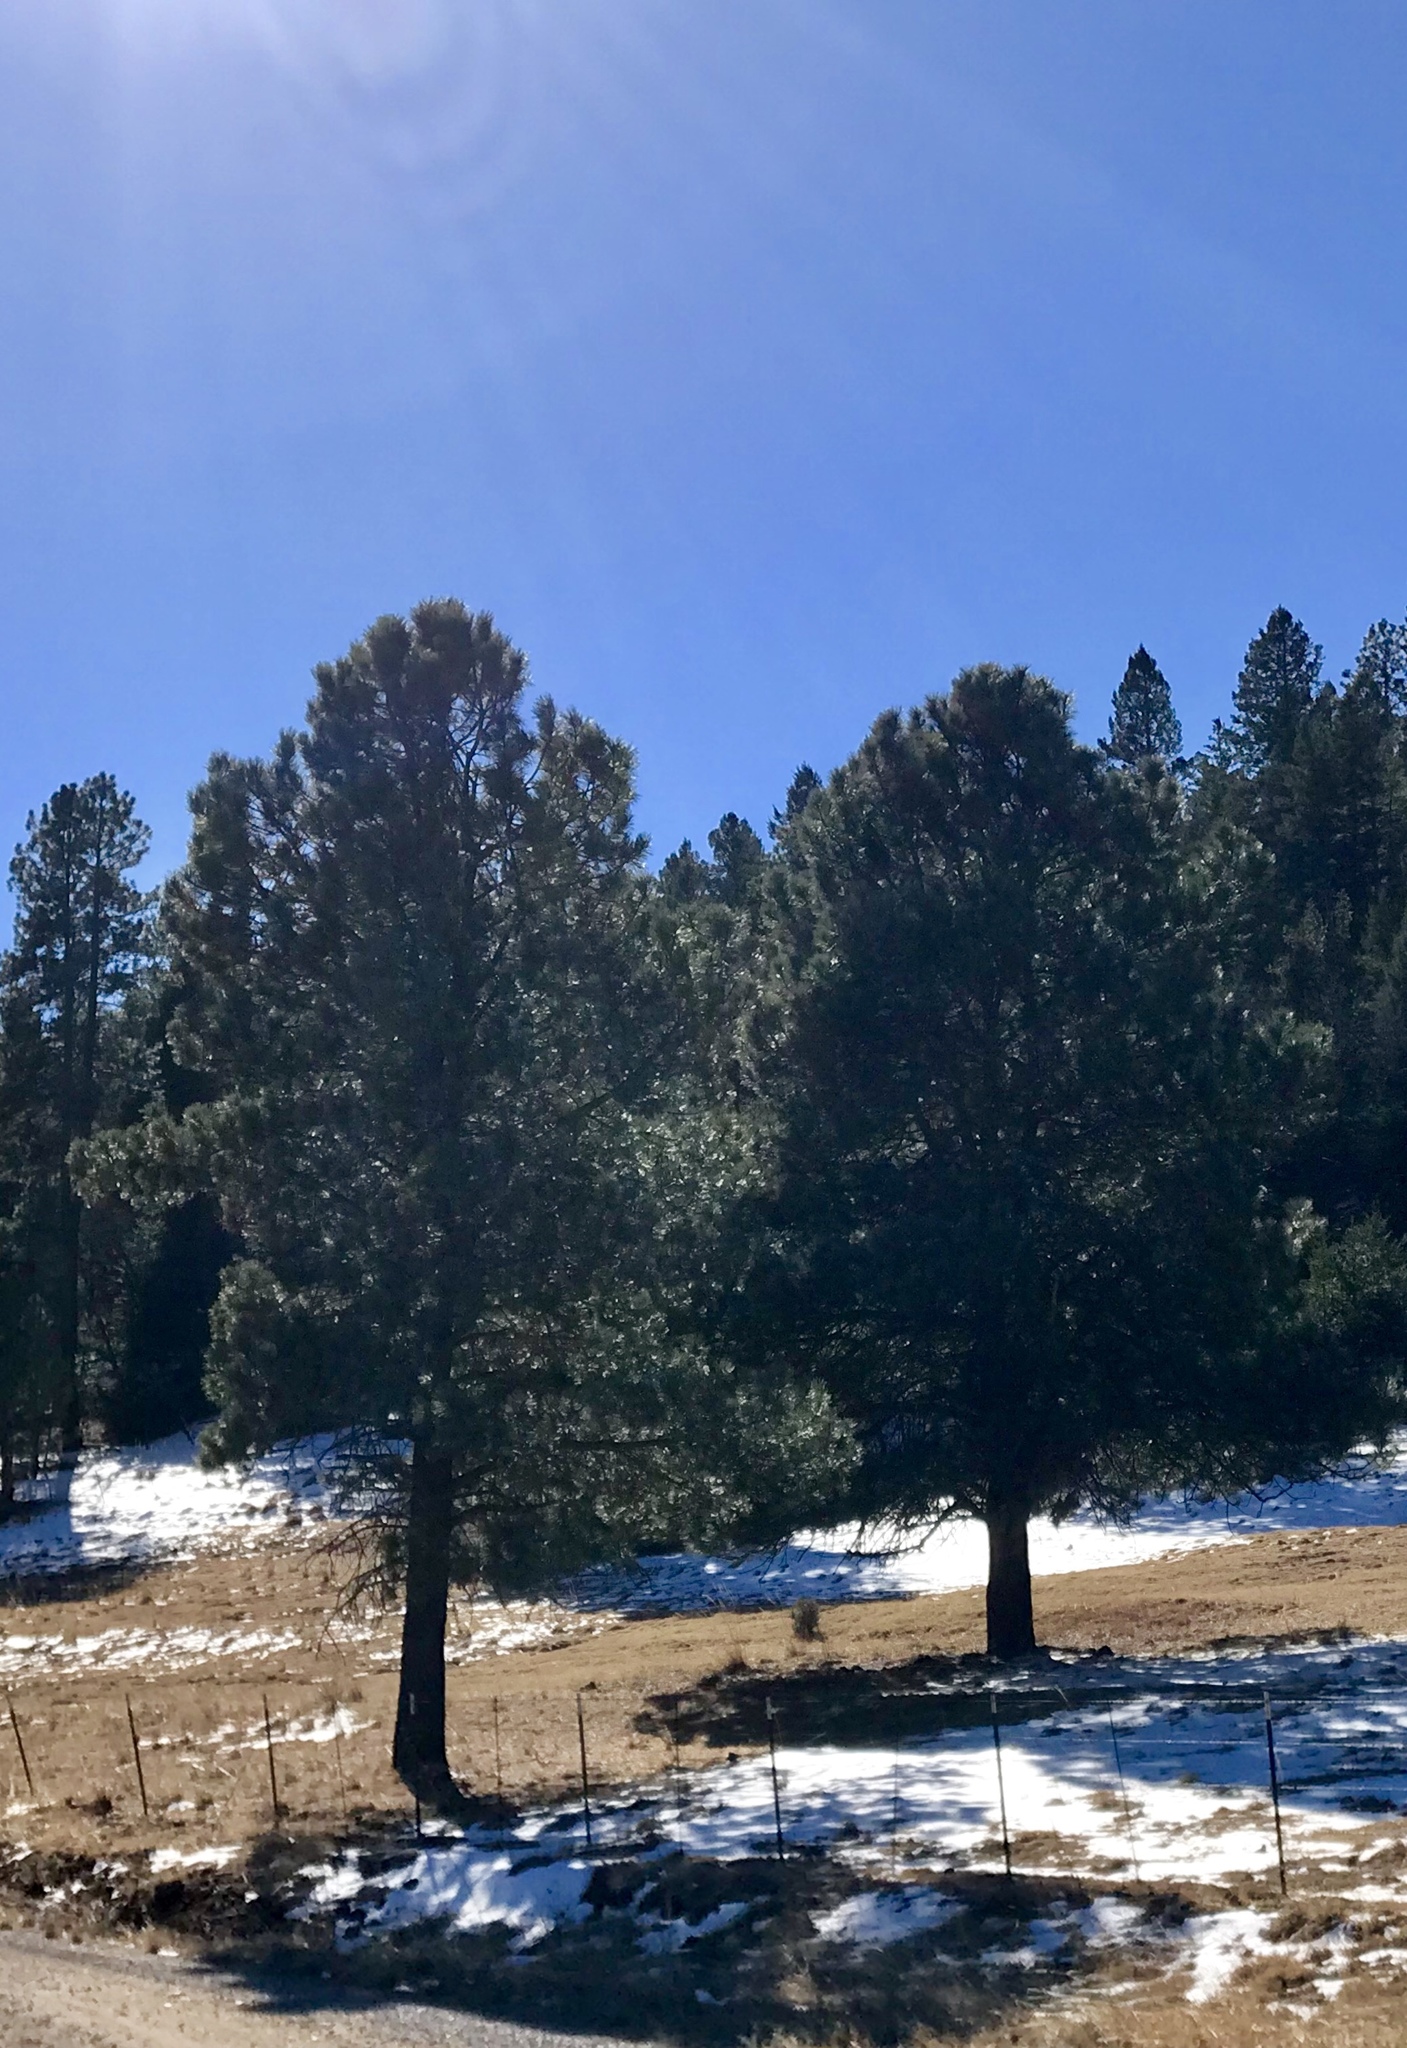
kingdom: Plantae
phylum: Tracheophyta
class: Pinopsida
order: Pinales
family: Pinaceae
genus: Pinus
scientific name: Pinus ponderosa
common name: Western yellow-pine
